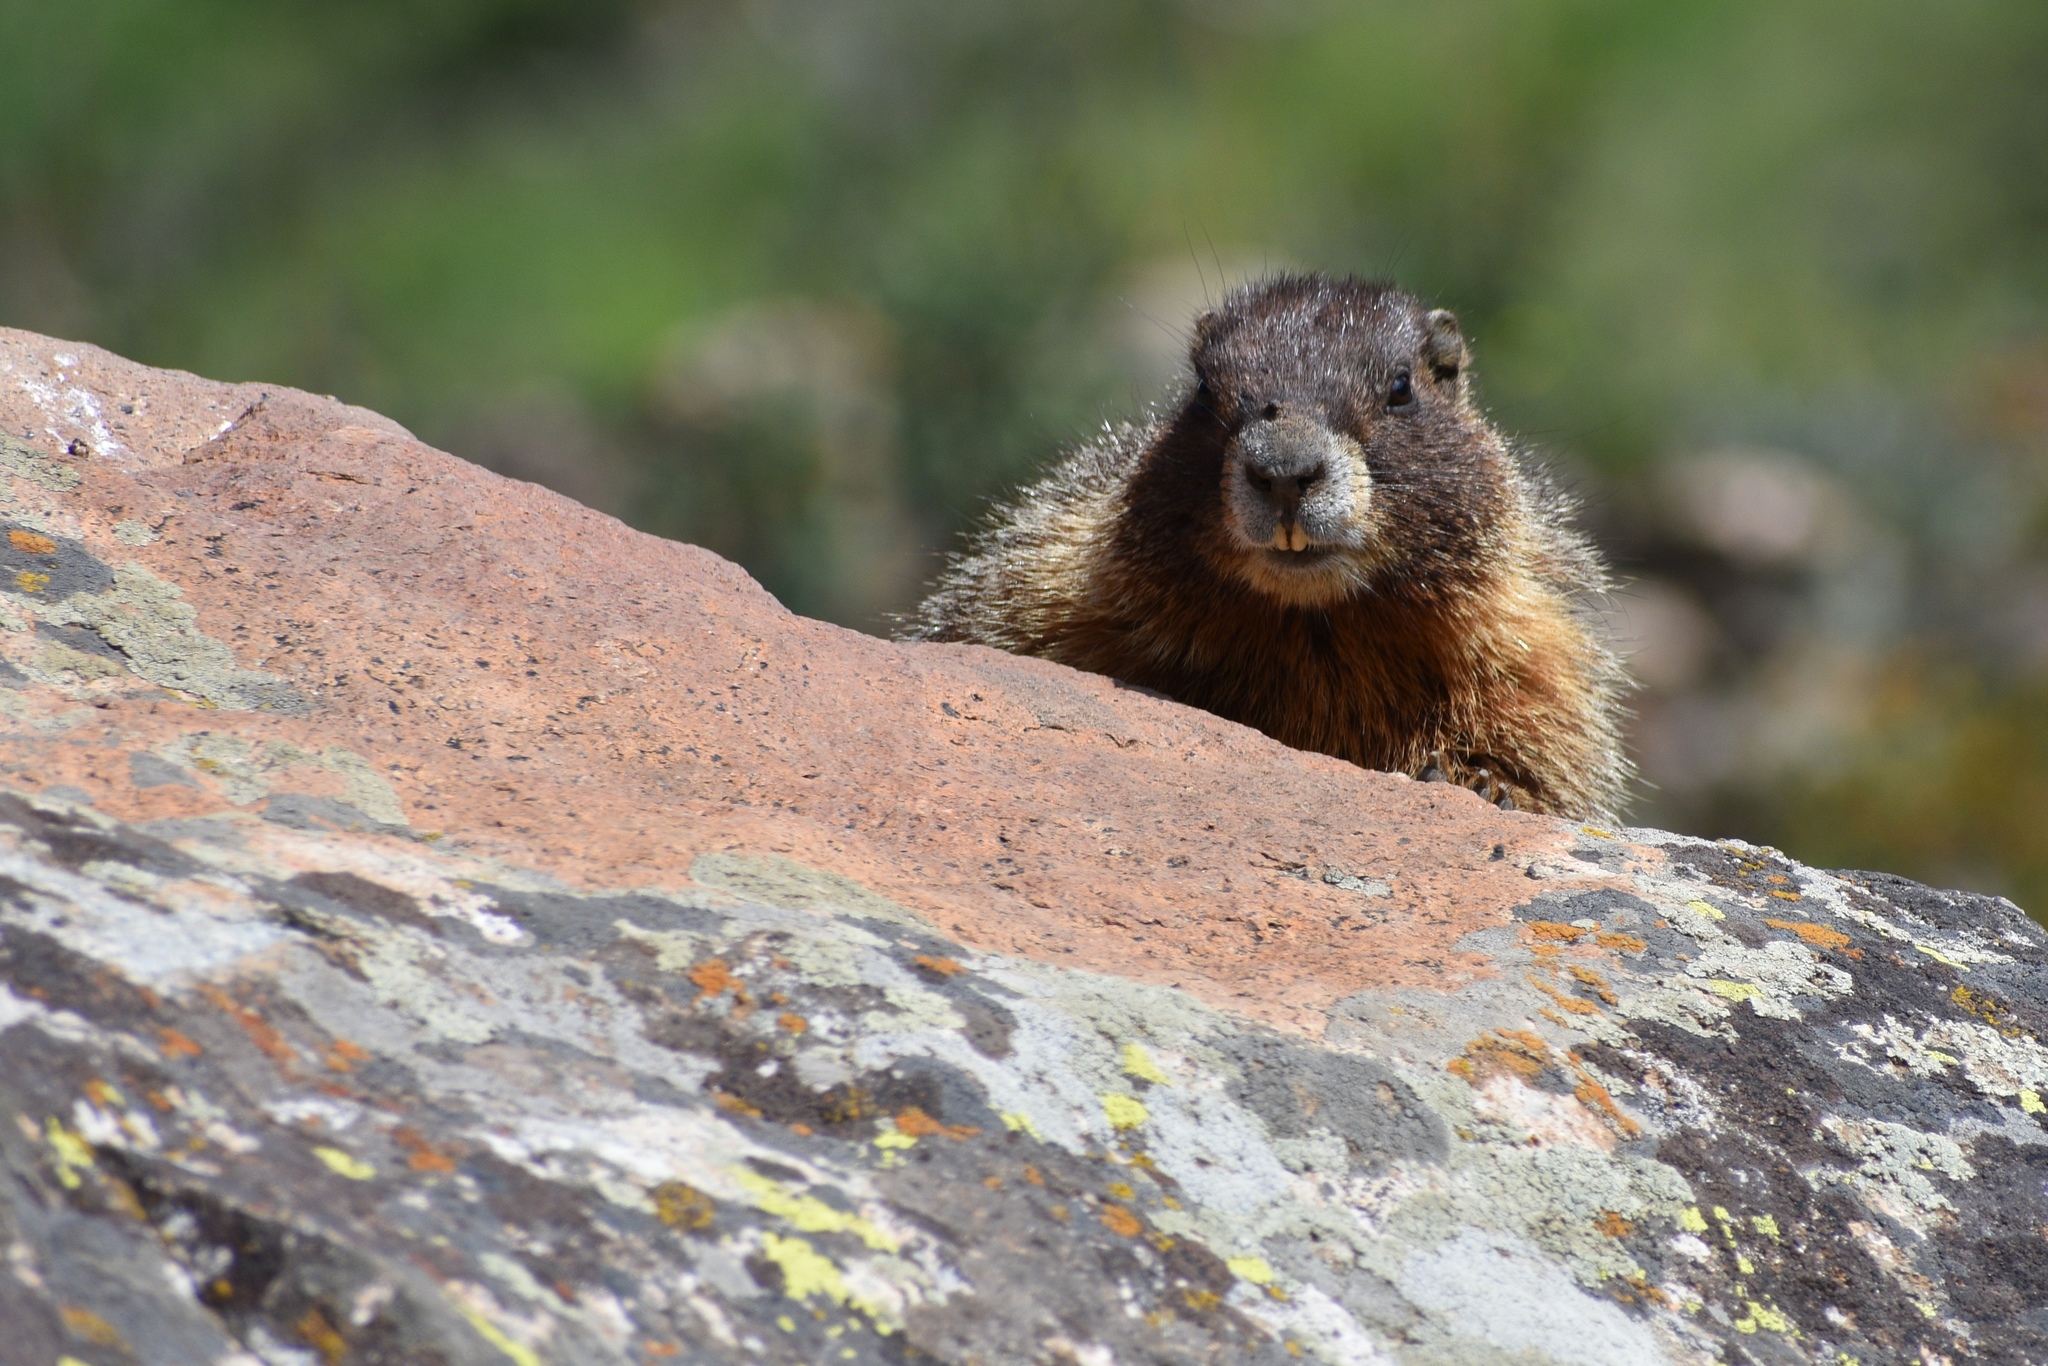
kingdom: Animalia
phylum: Chordata
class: Mammalia
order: Rodentia
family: Sciuridae
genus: Marmota
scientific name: Marmota flaviventris
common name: Yellow-bellied marmot
